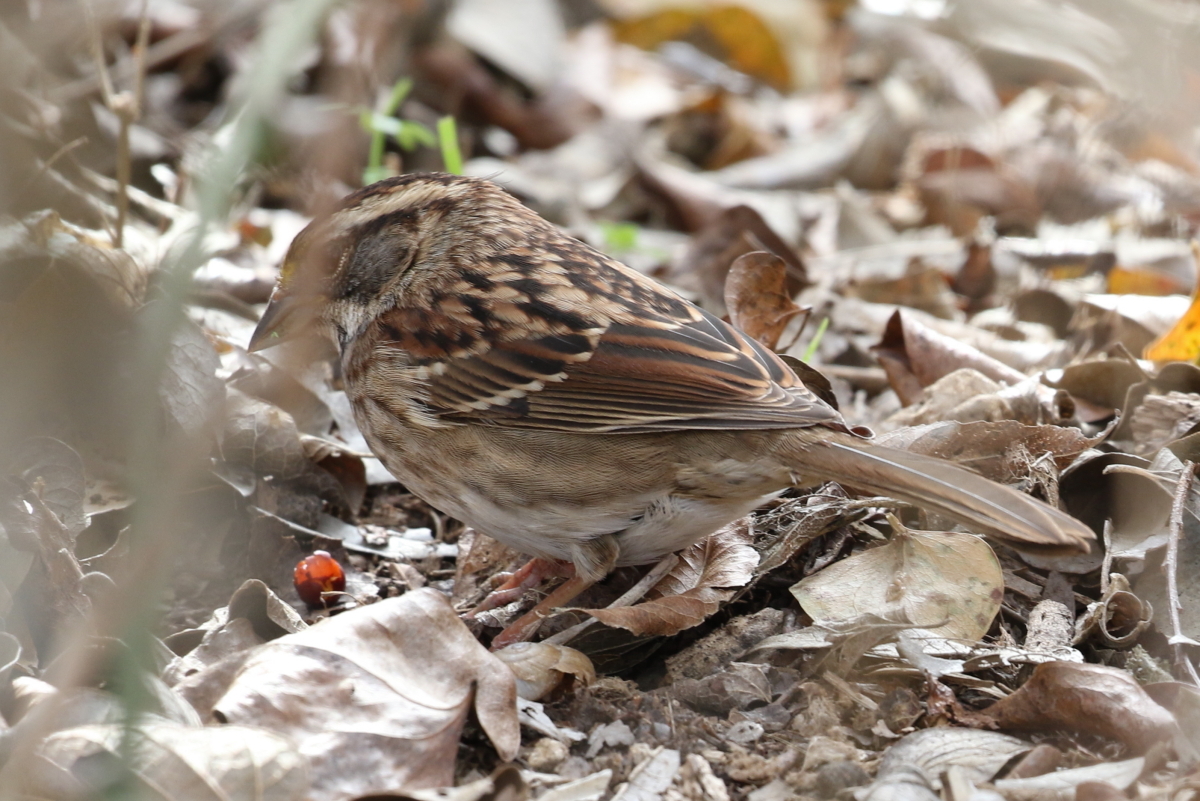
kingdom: Animalia
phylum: Chordata
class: Aves
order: Passeriformes
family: Passerellidae
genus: Zonotrichia
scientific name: Zonotrichia albicollis
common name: White-throated sparrow
